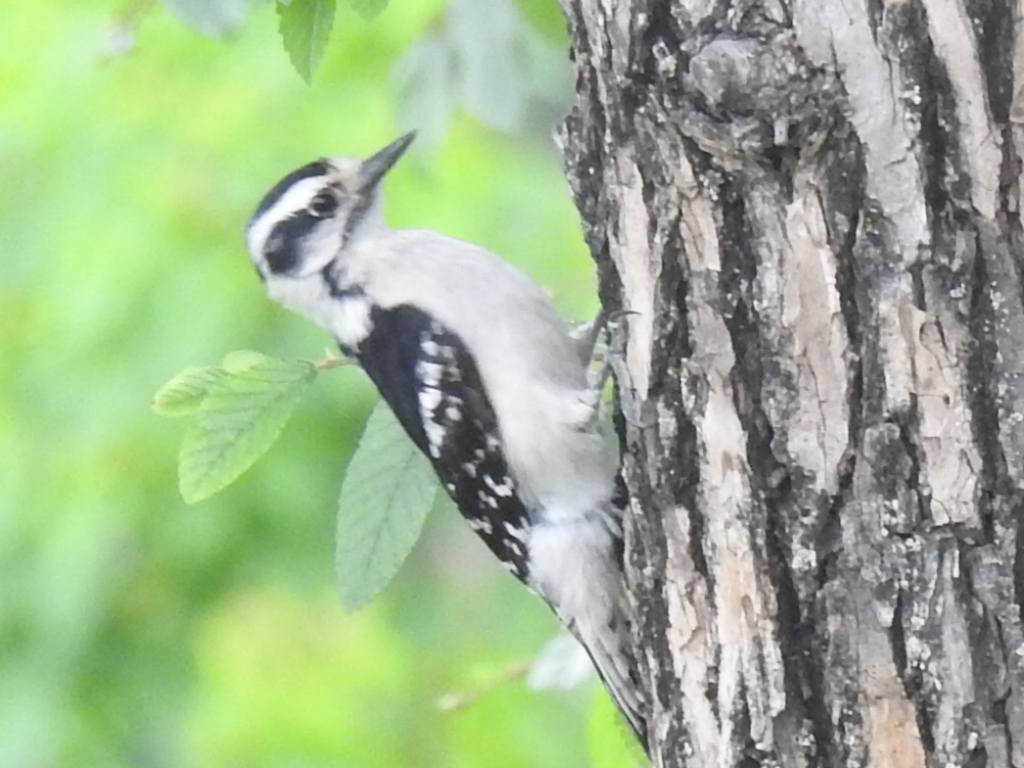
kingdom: Animalia
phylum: Chordata
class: Aves
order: Piciformes
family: Picidae
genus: Dryobates
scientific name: Dryobates pubescens
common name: Downy woodpecker
